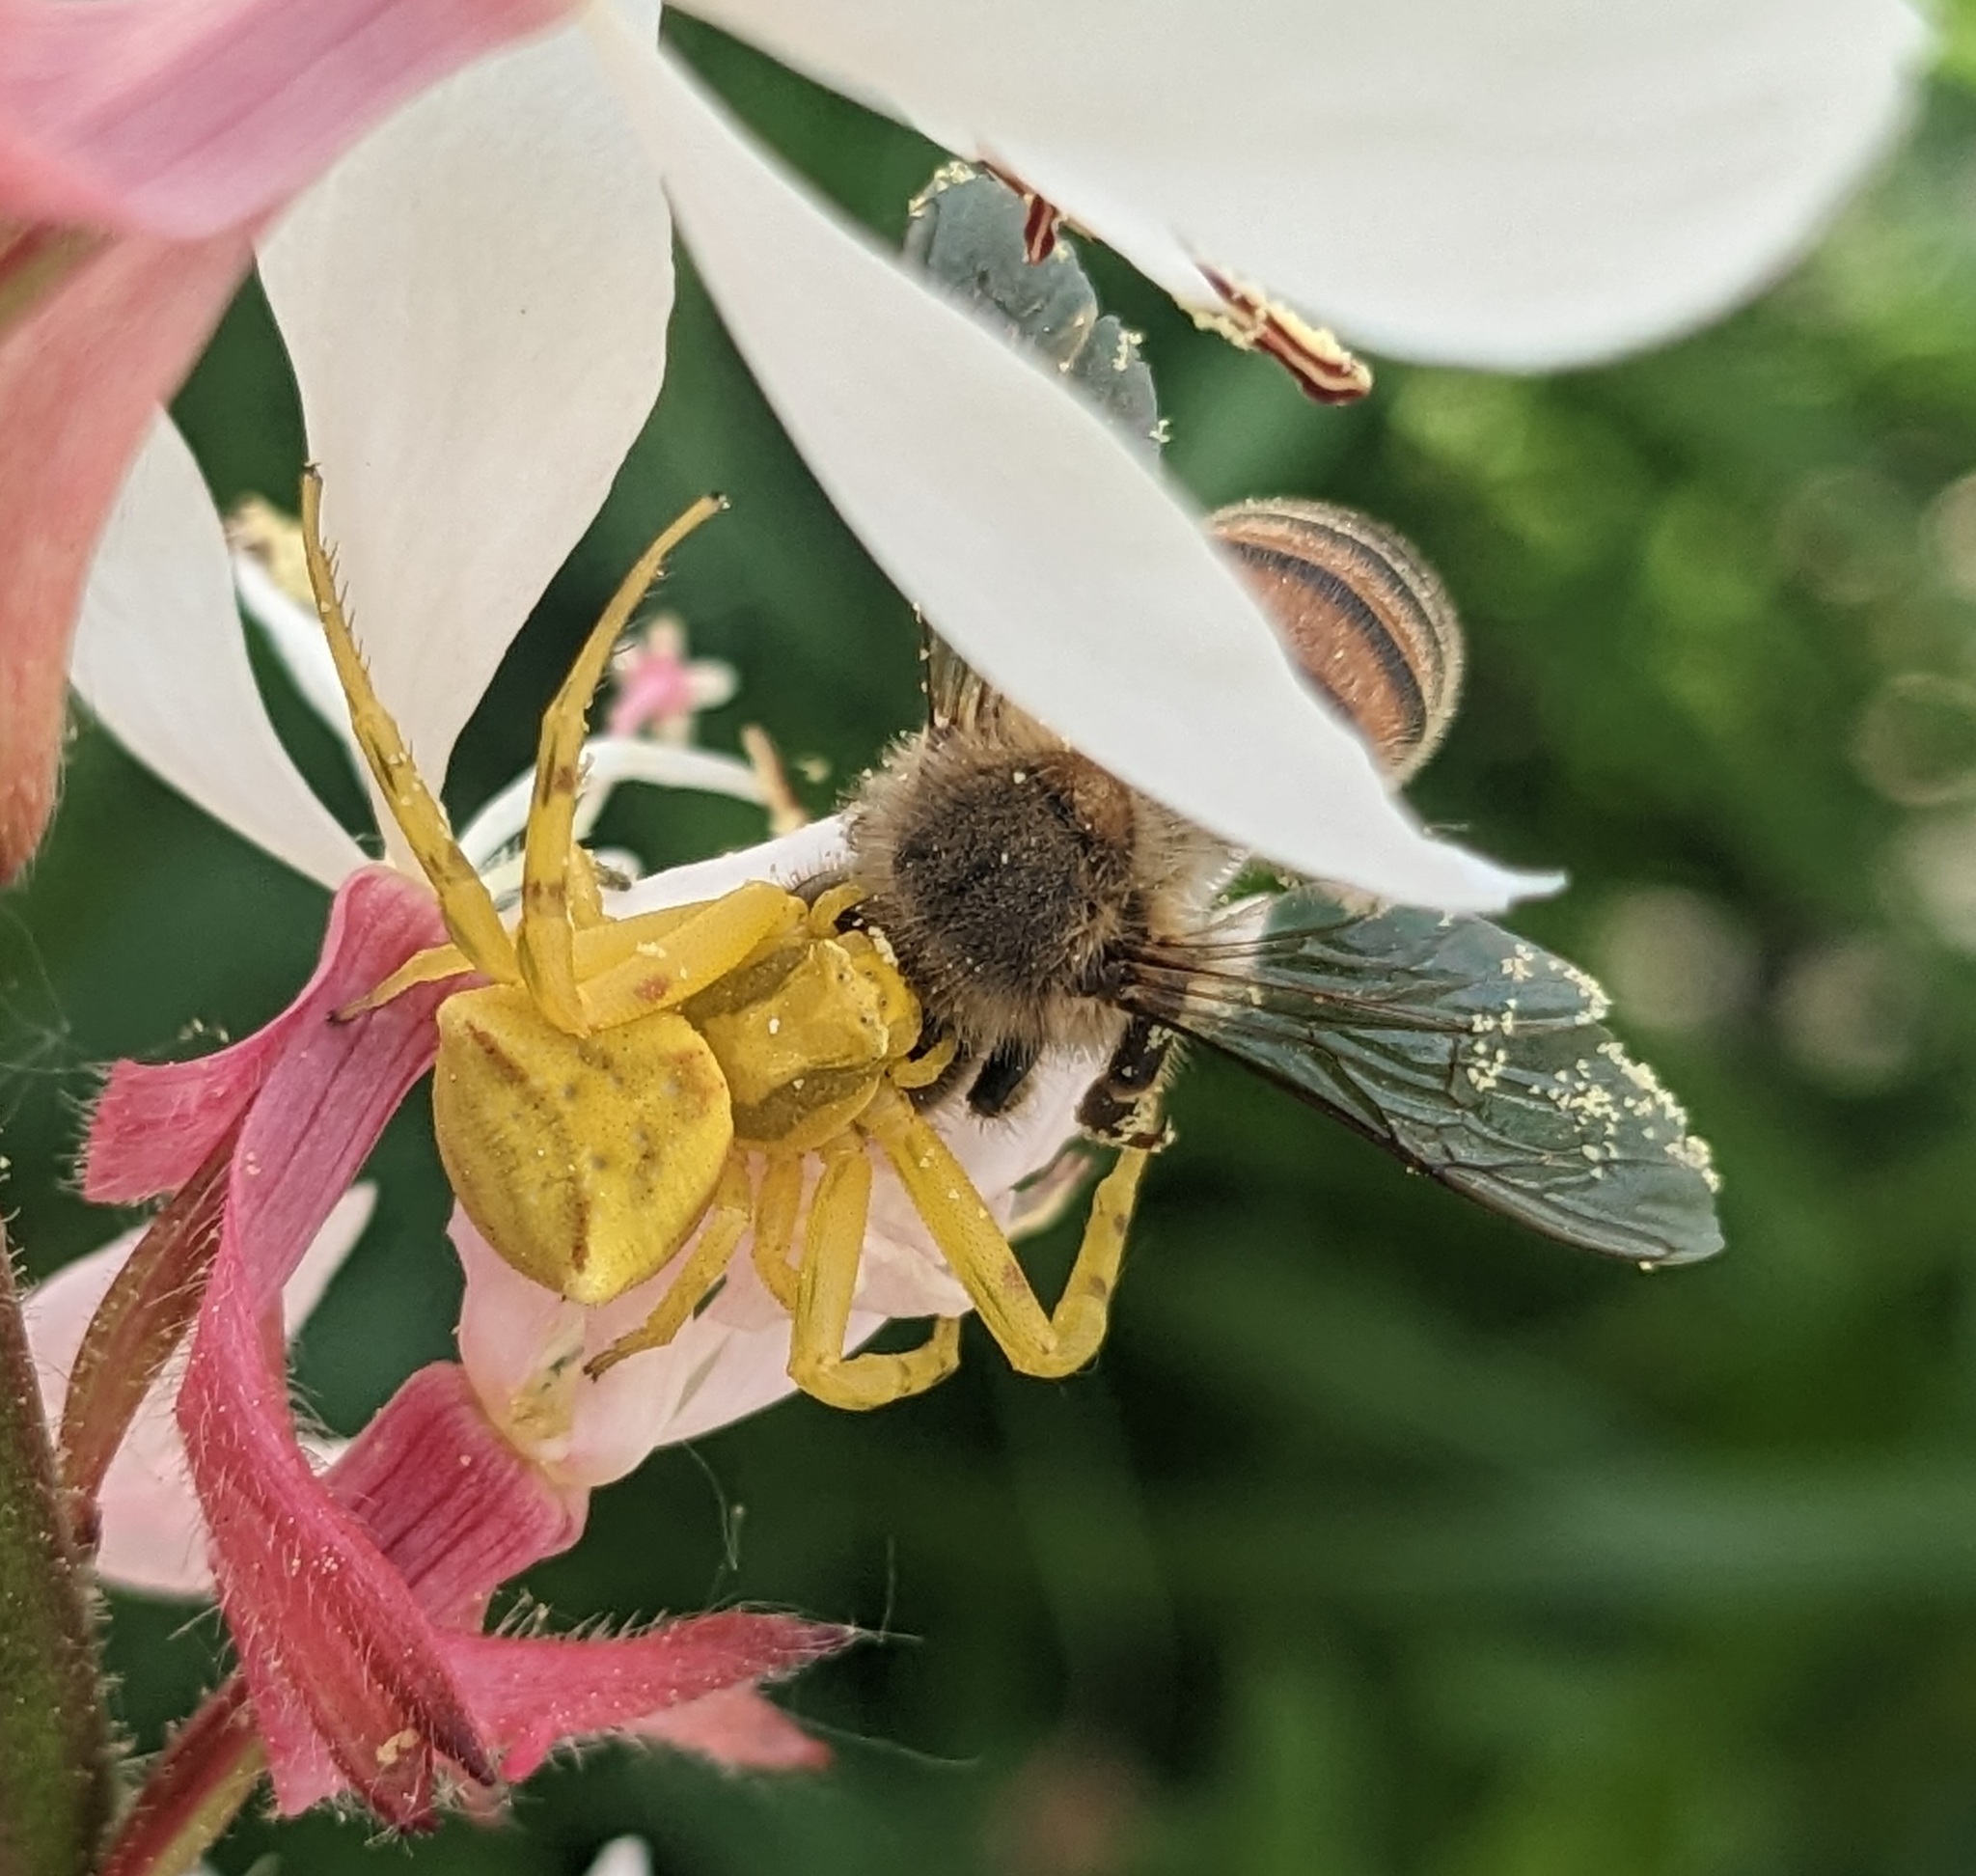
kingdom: Animalia
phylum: Arthropoda
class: Arachnida
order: Araneae
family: Thomisidae
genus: Thomisus
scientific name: Thomisus onustus
